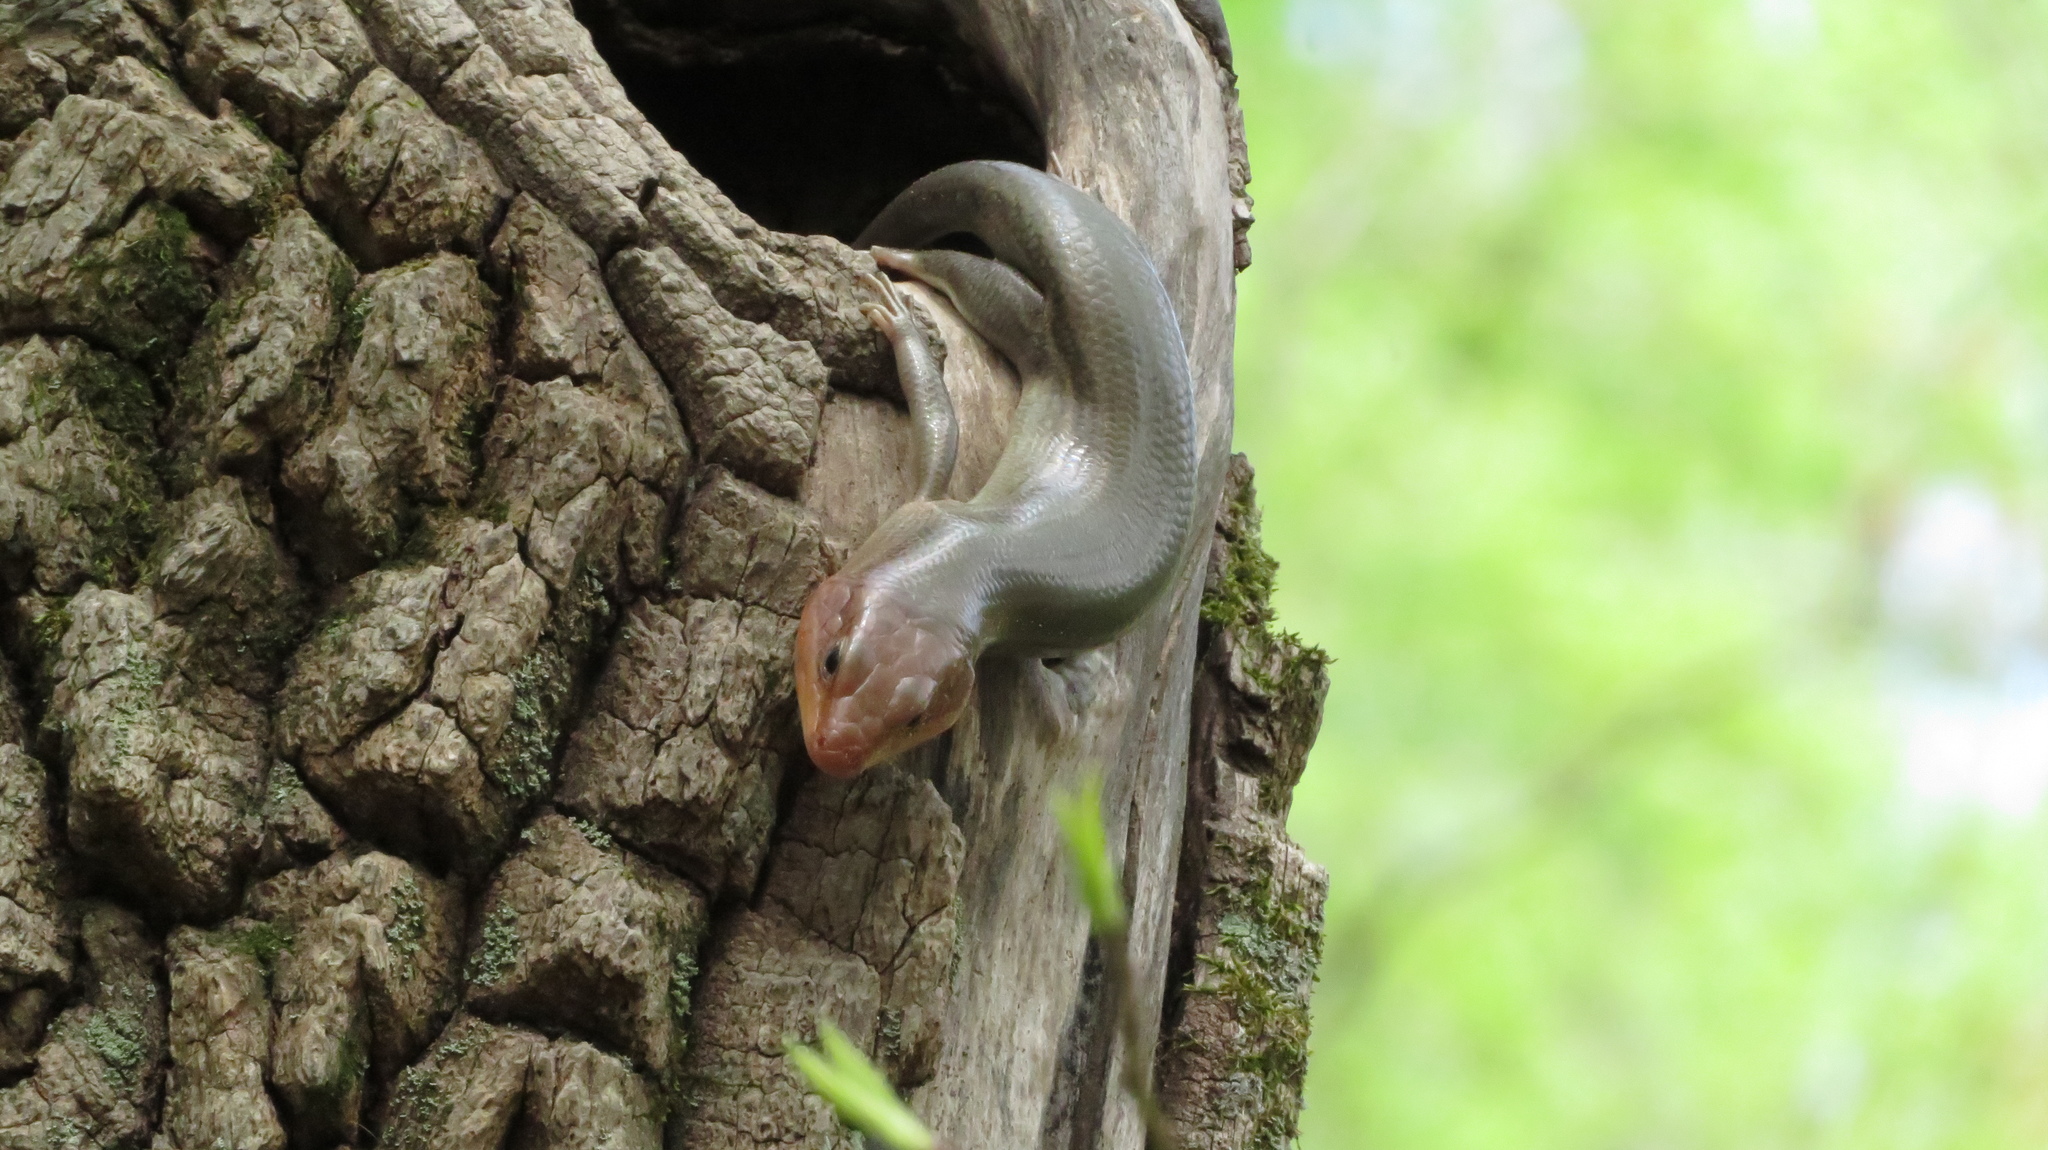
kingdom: Animalia
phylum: Chordata
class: Squamata
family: Scincidae
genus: Plestiodon
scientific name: Plestiodon laticeps
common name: Broadhead skink
